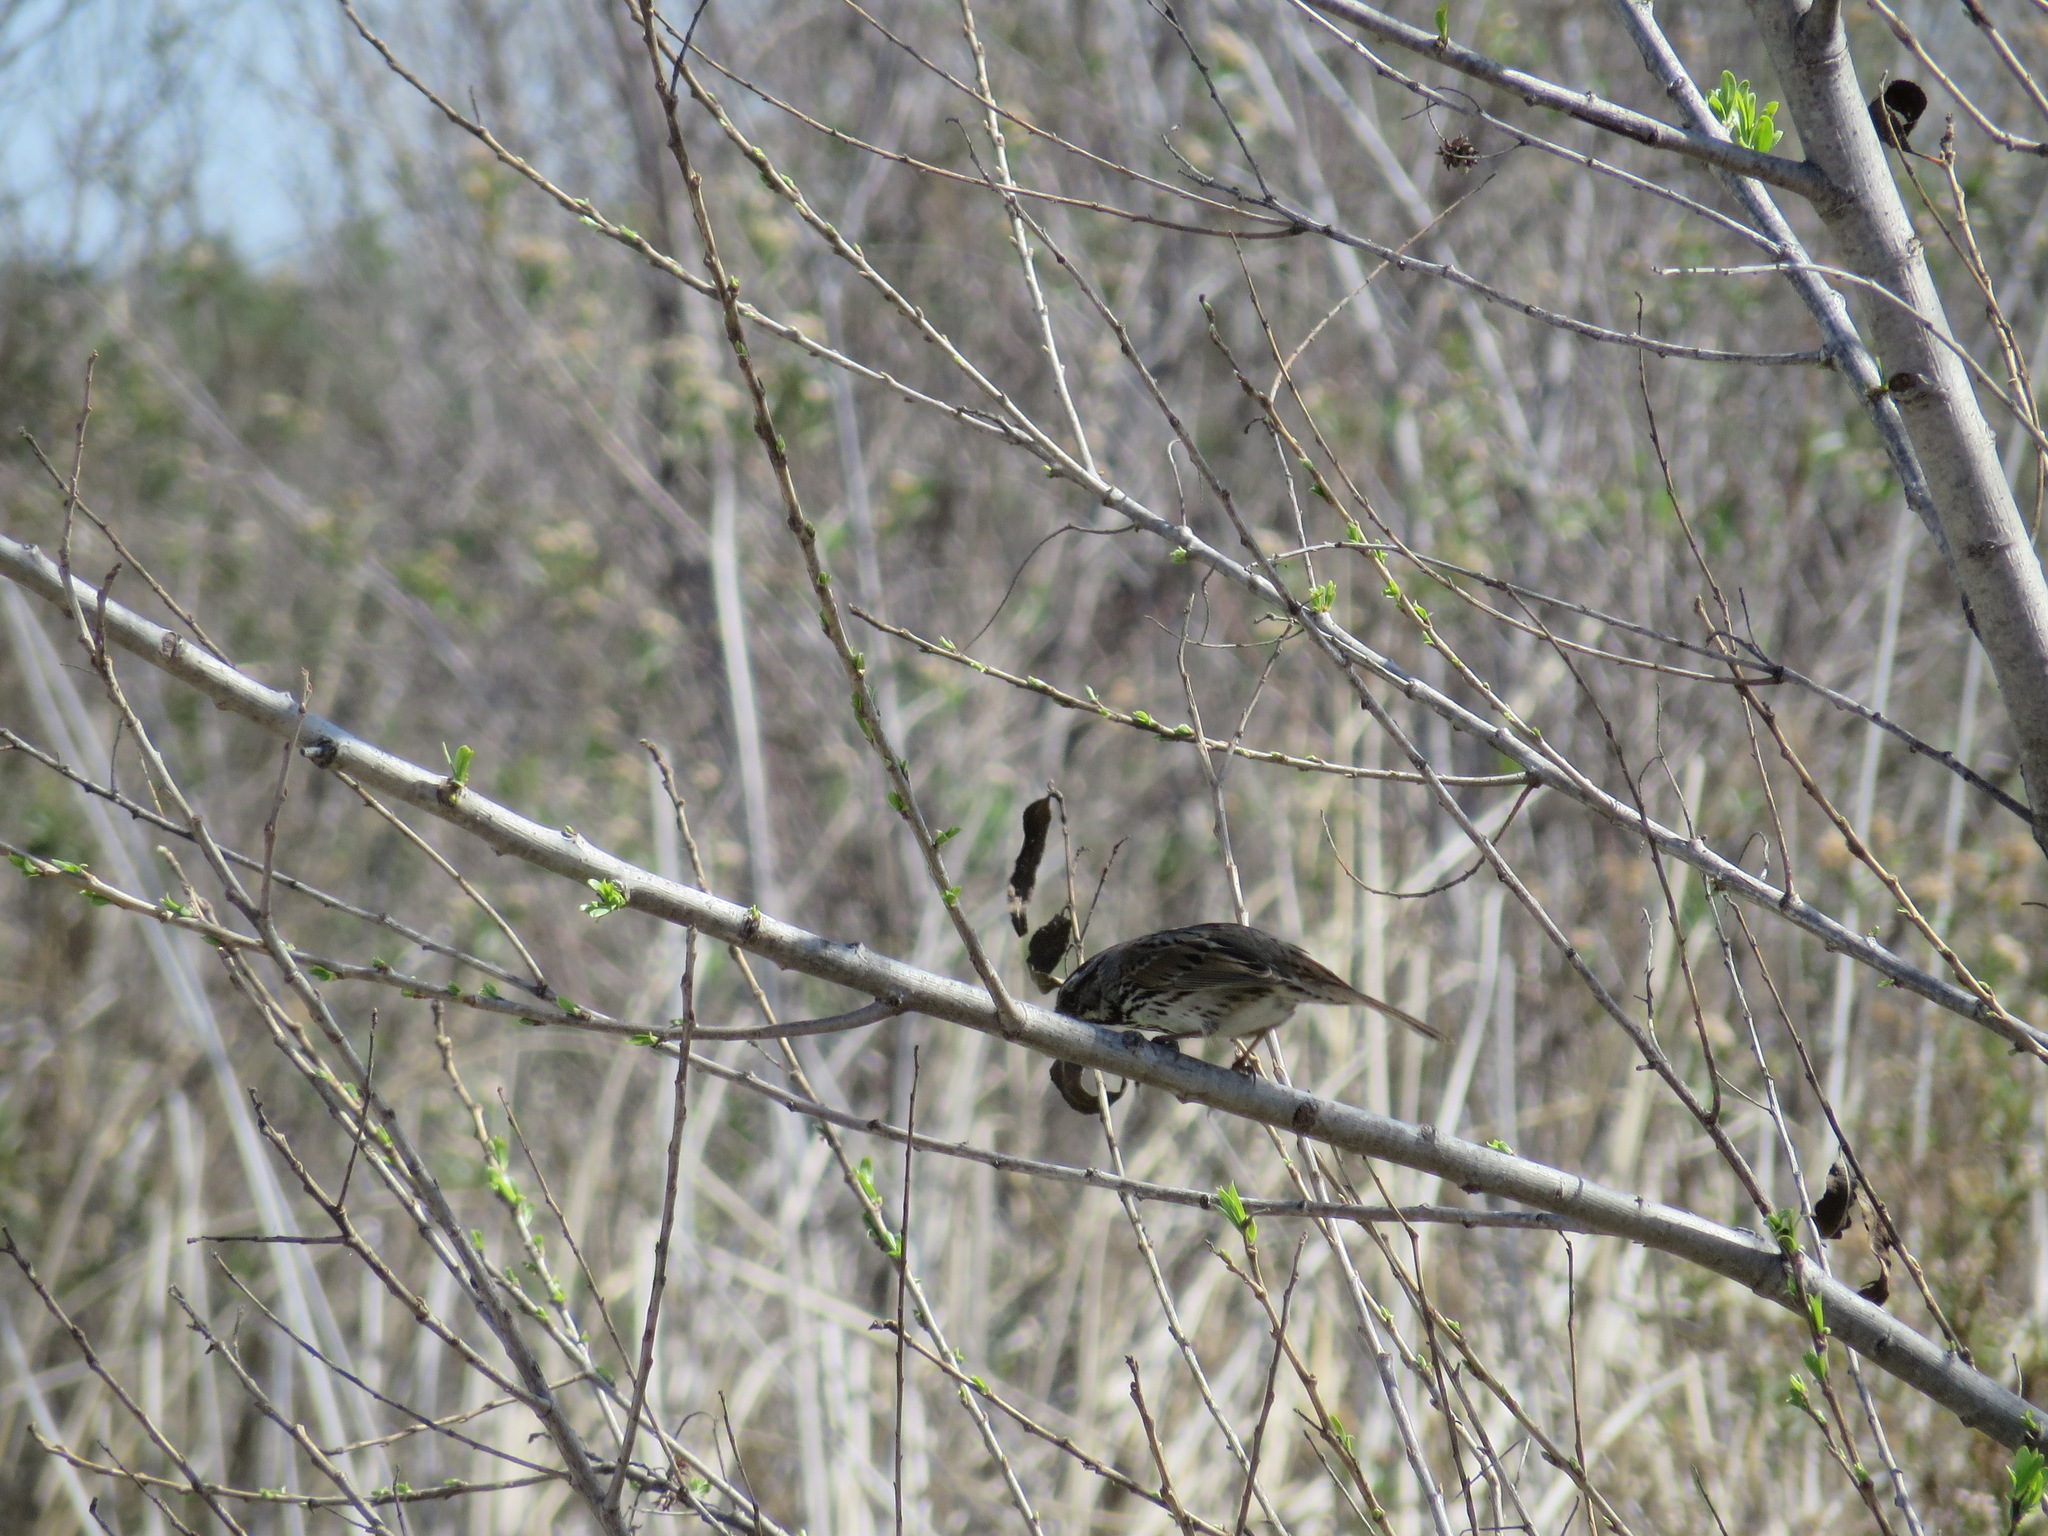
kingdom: Animalia
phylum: Chordata
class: Aves
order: Passeriformes
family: Passerellidae
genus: Melospiza
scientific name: Melospiza melodia
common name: Song sparrow
